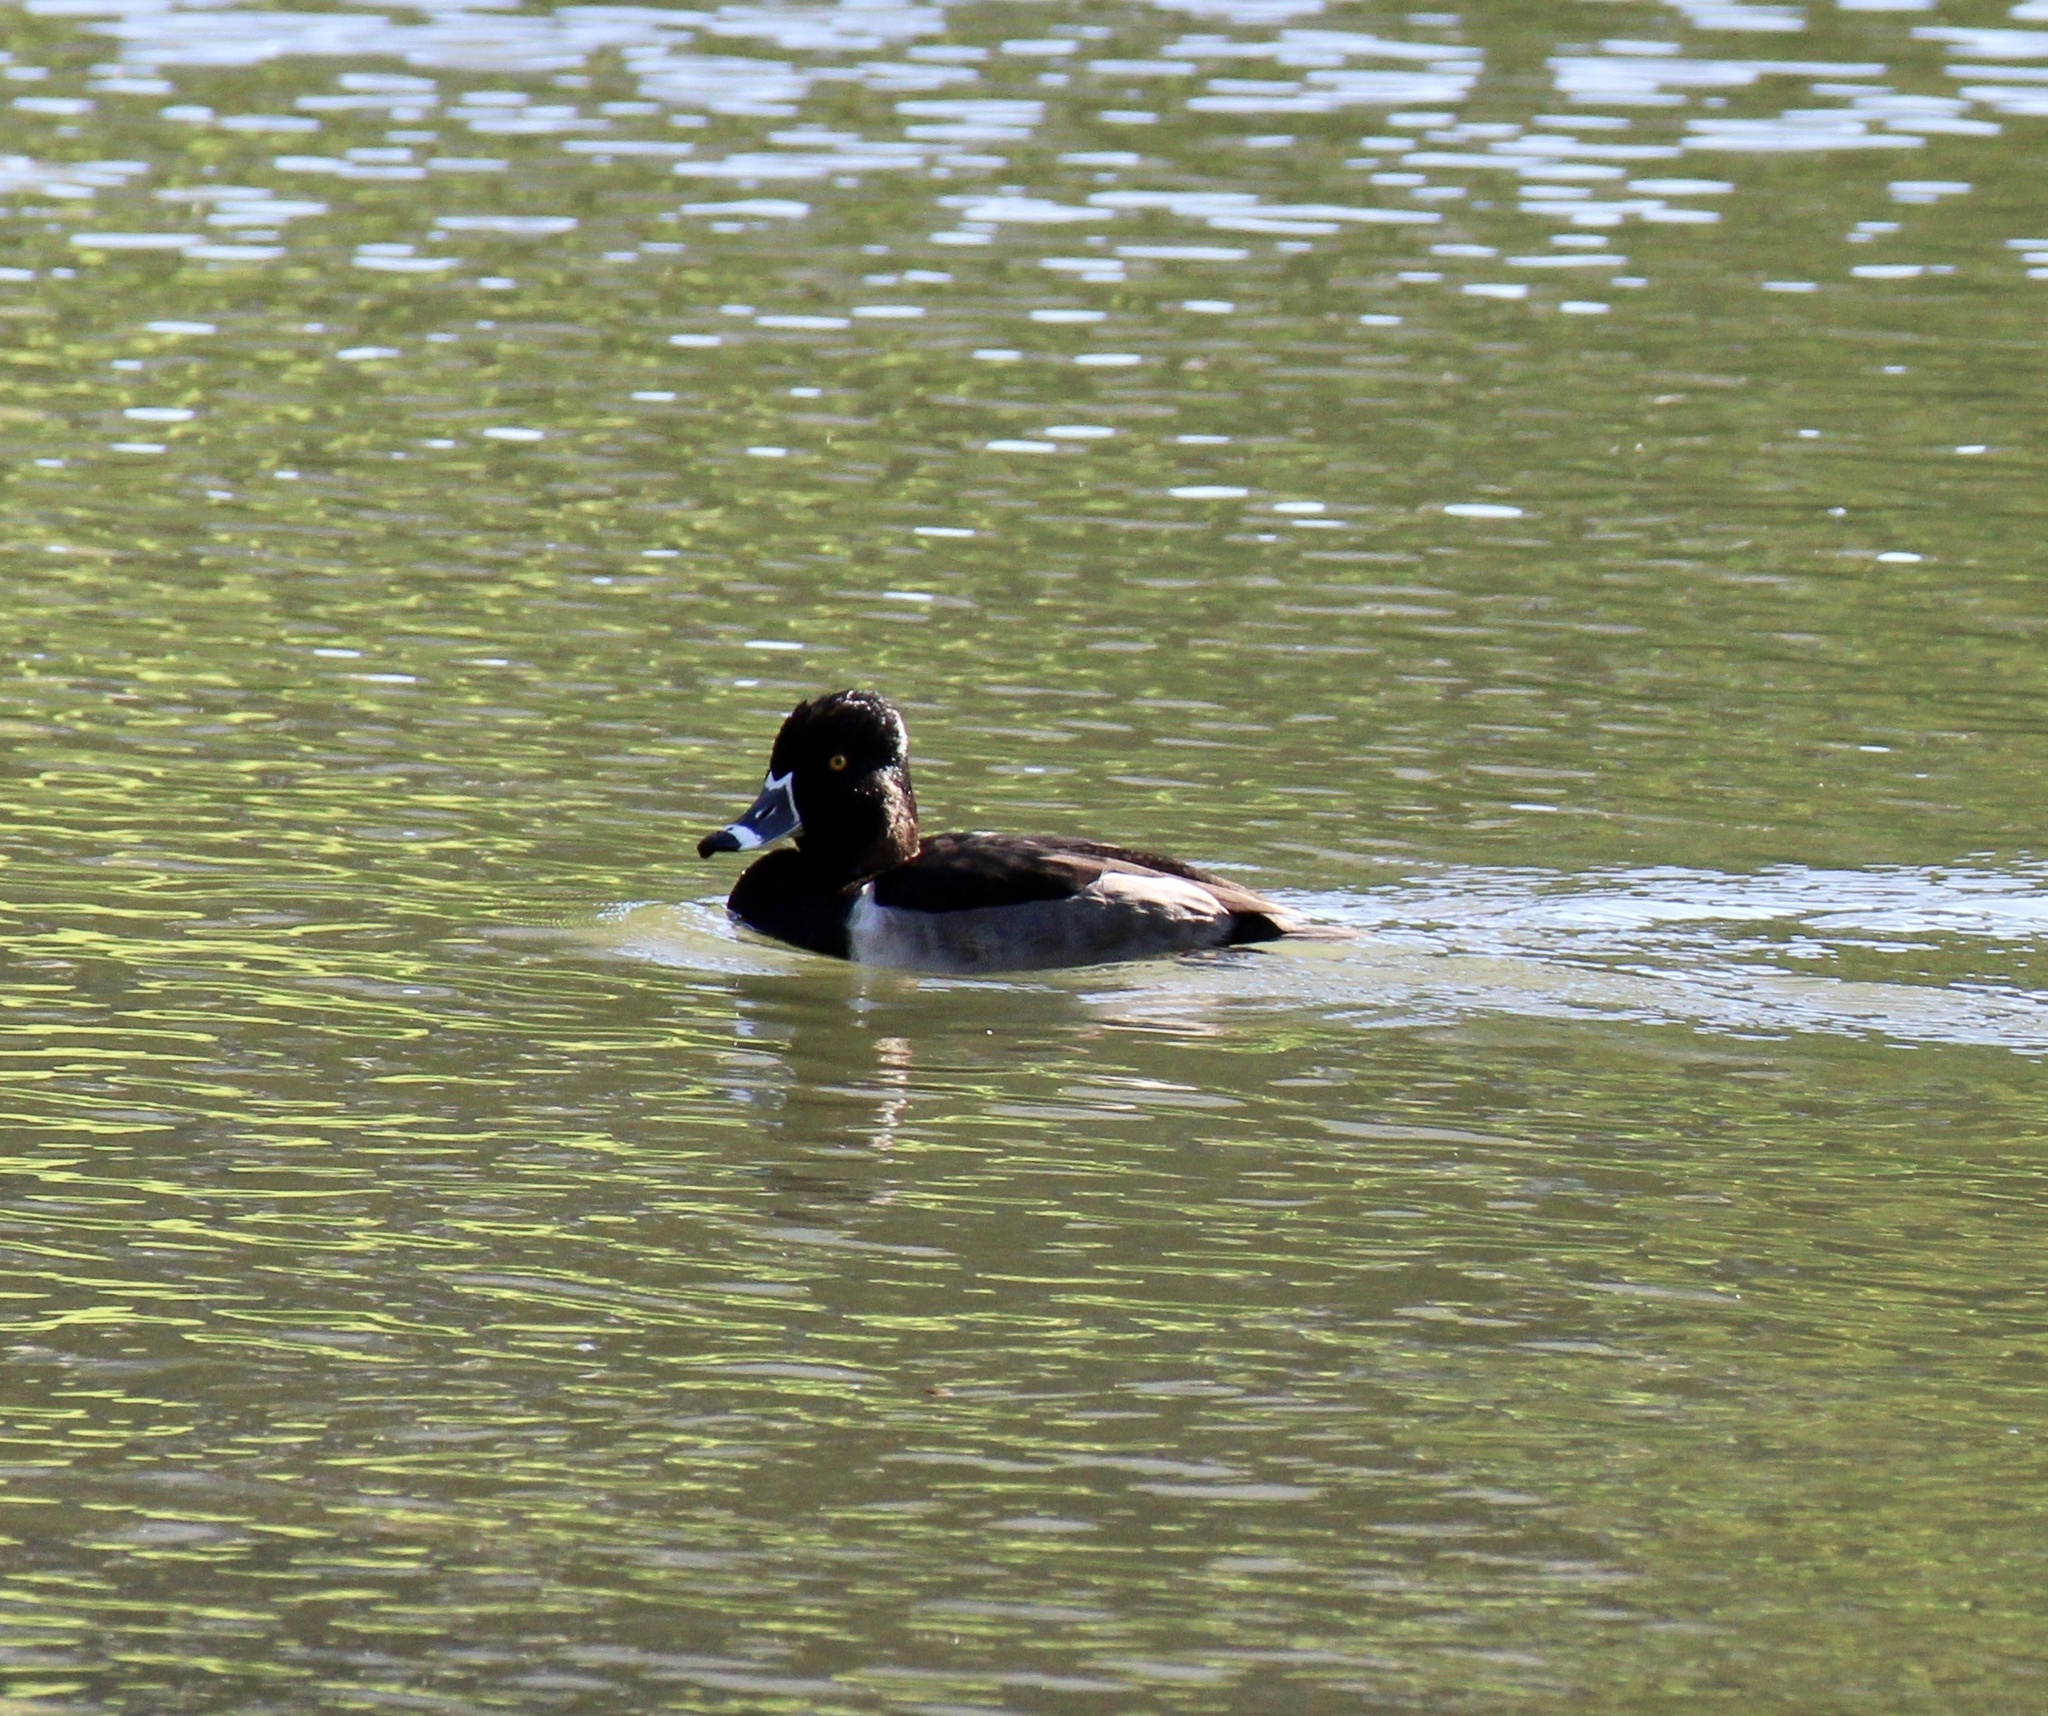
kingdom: Animalia
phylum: Chordata
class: Aves
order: Anseriformes
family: Anatidae
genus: Aythya
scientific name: Aythya collaris
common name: Ring-necked duck
